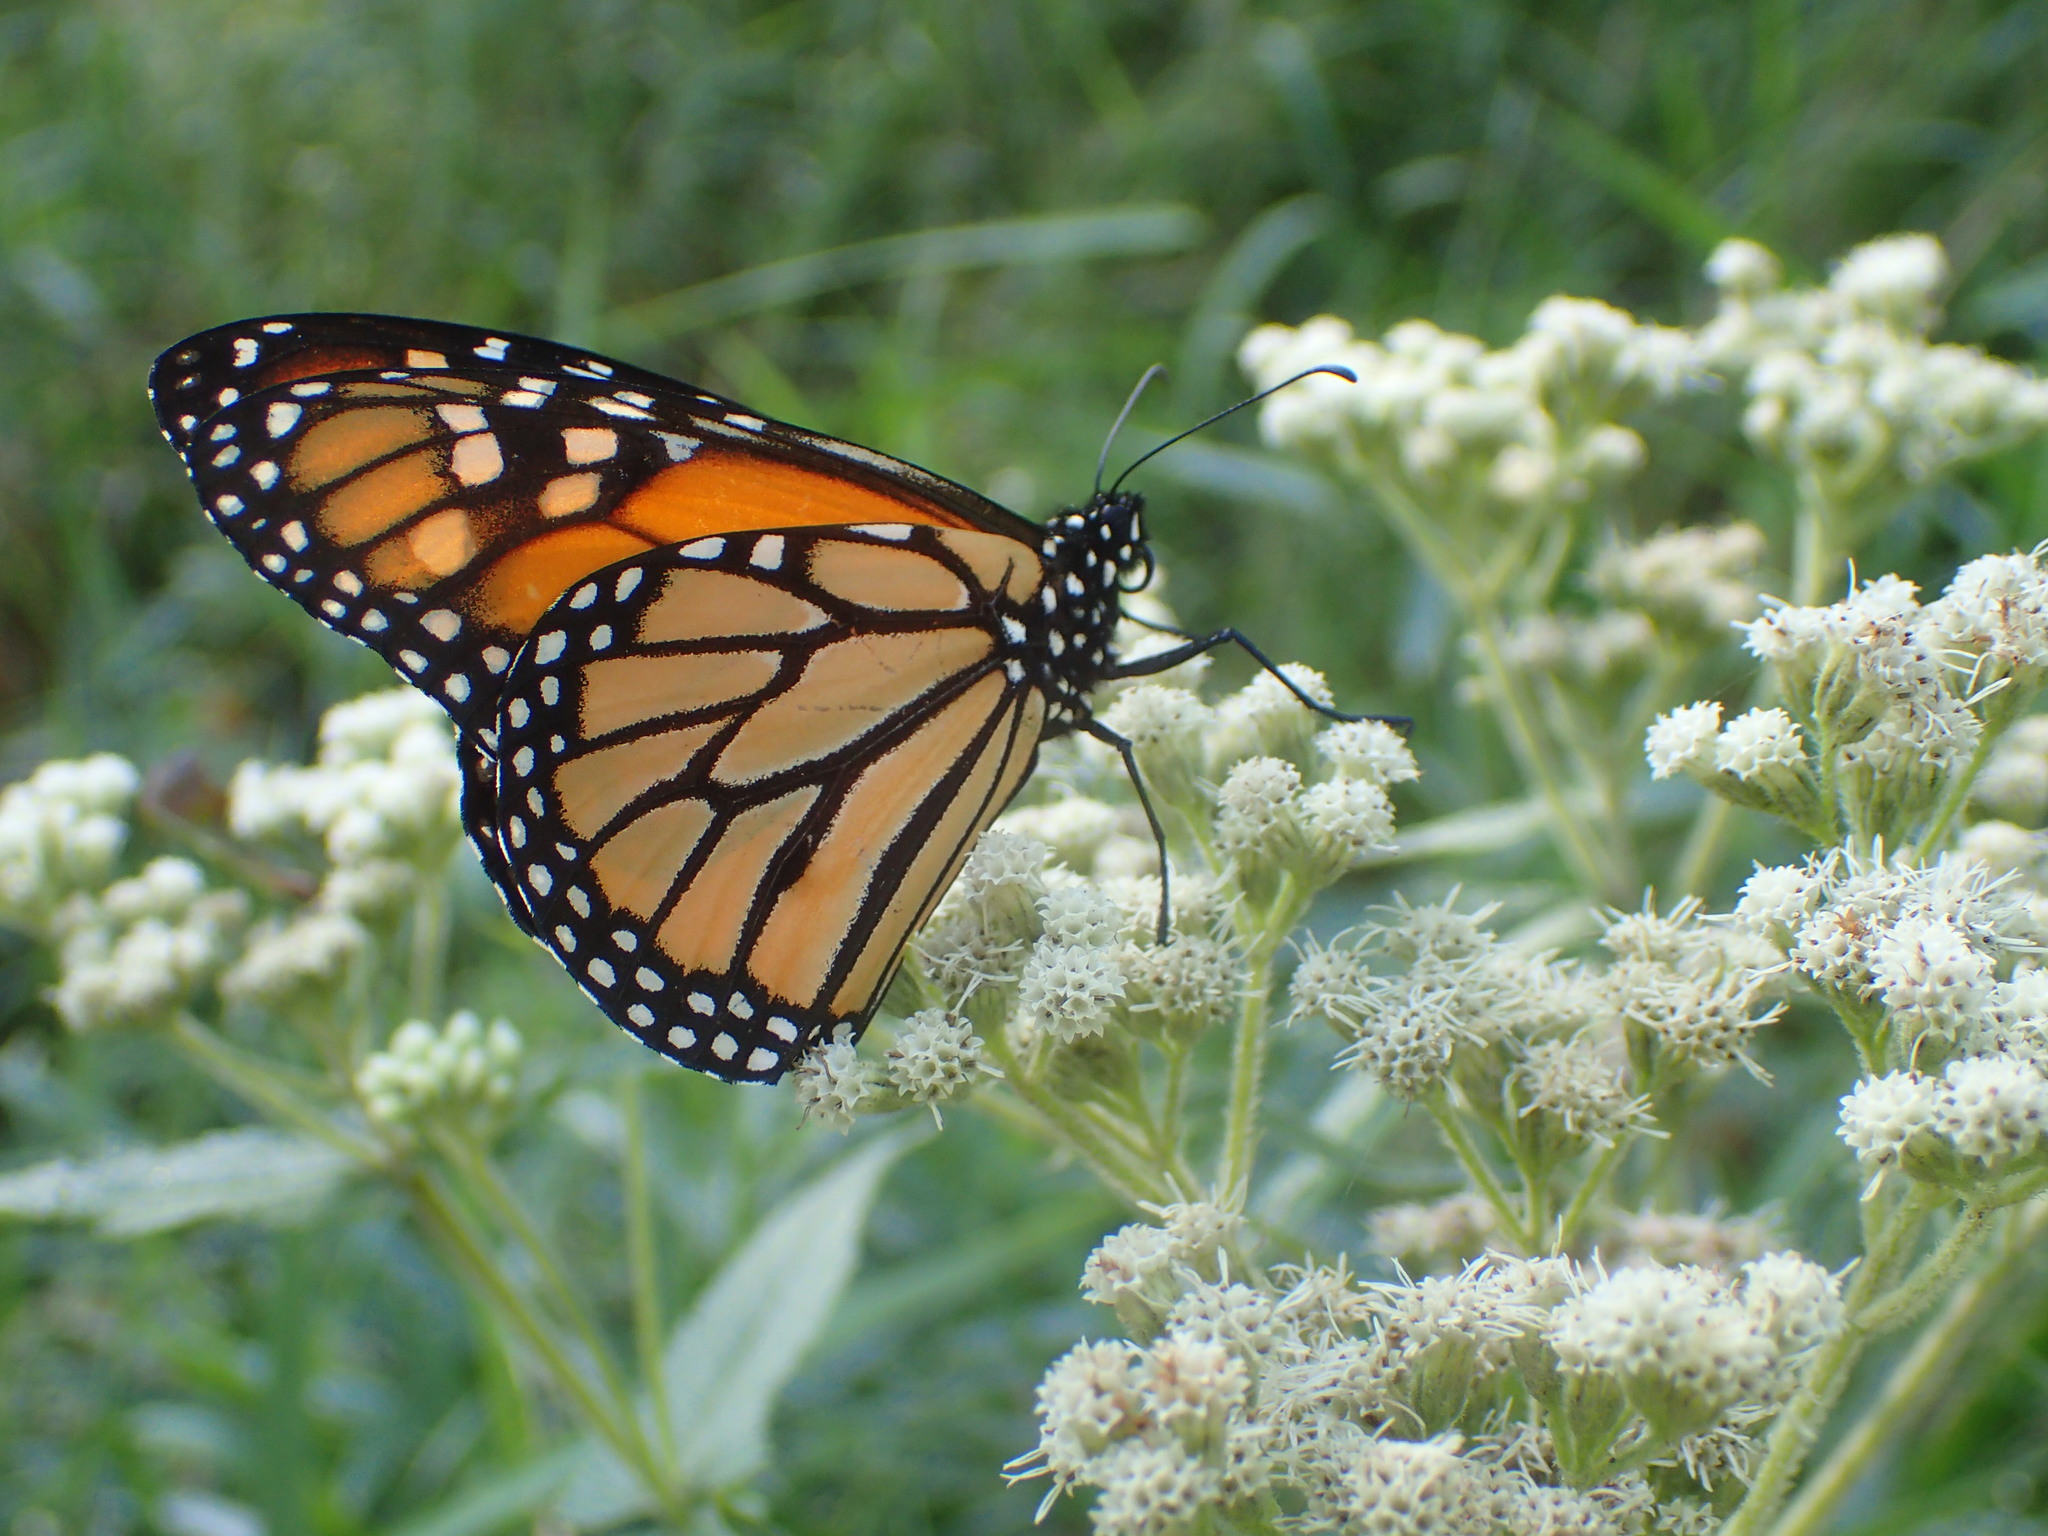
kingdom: Animalia
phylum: Arthropoda
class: Insecta
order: Lepidoptera
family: Nymphalidae
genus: Danaus
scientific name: Danaus plexippus
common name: Monarch
